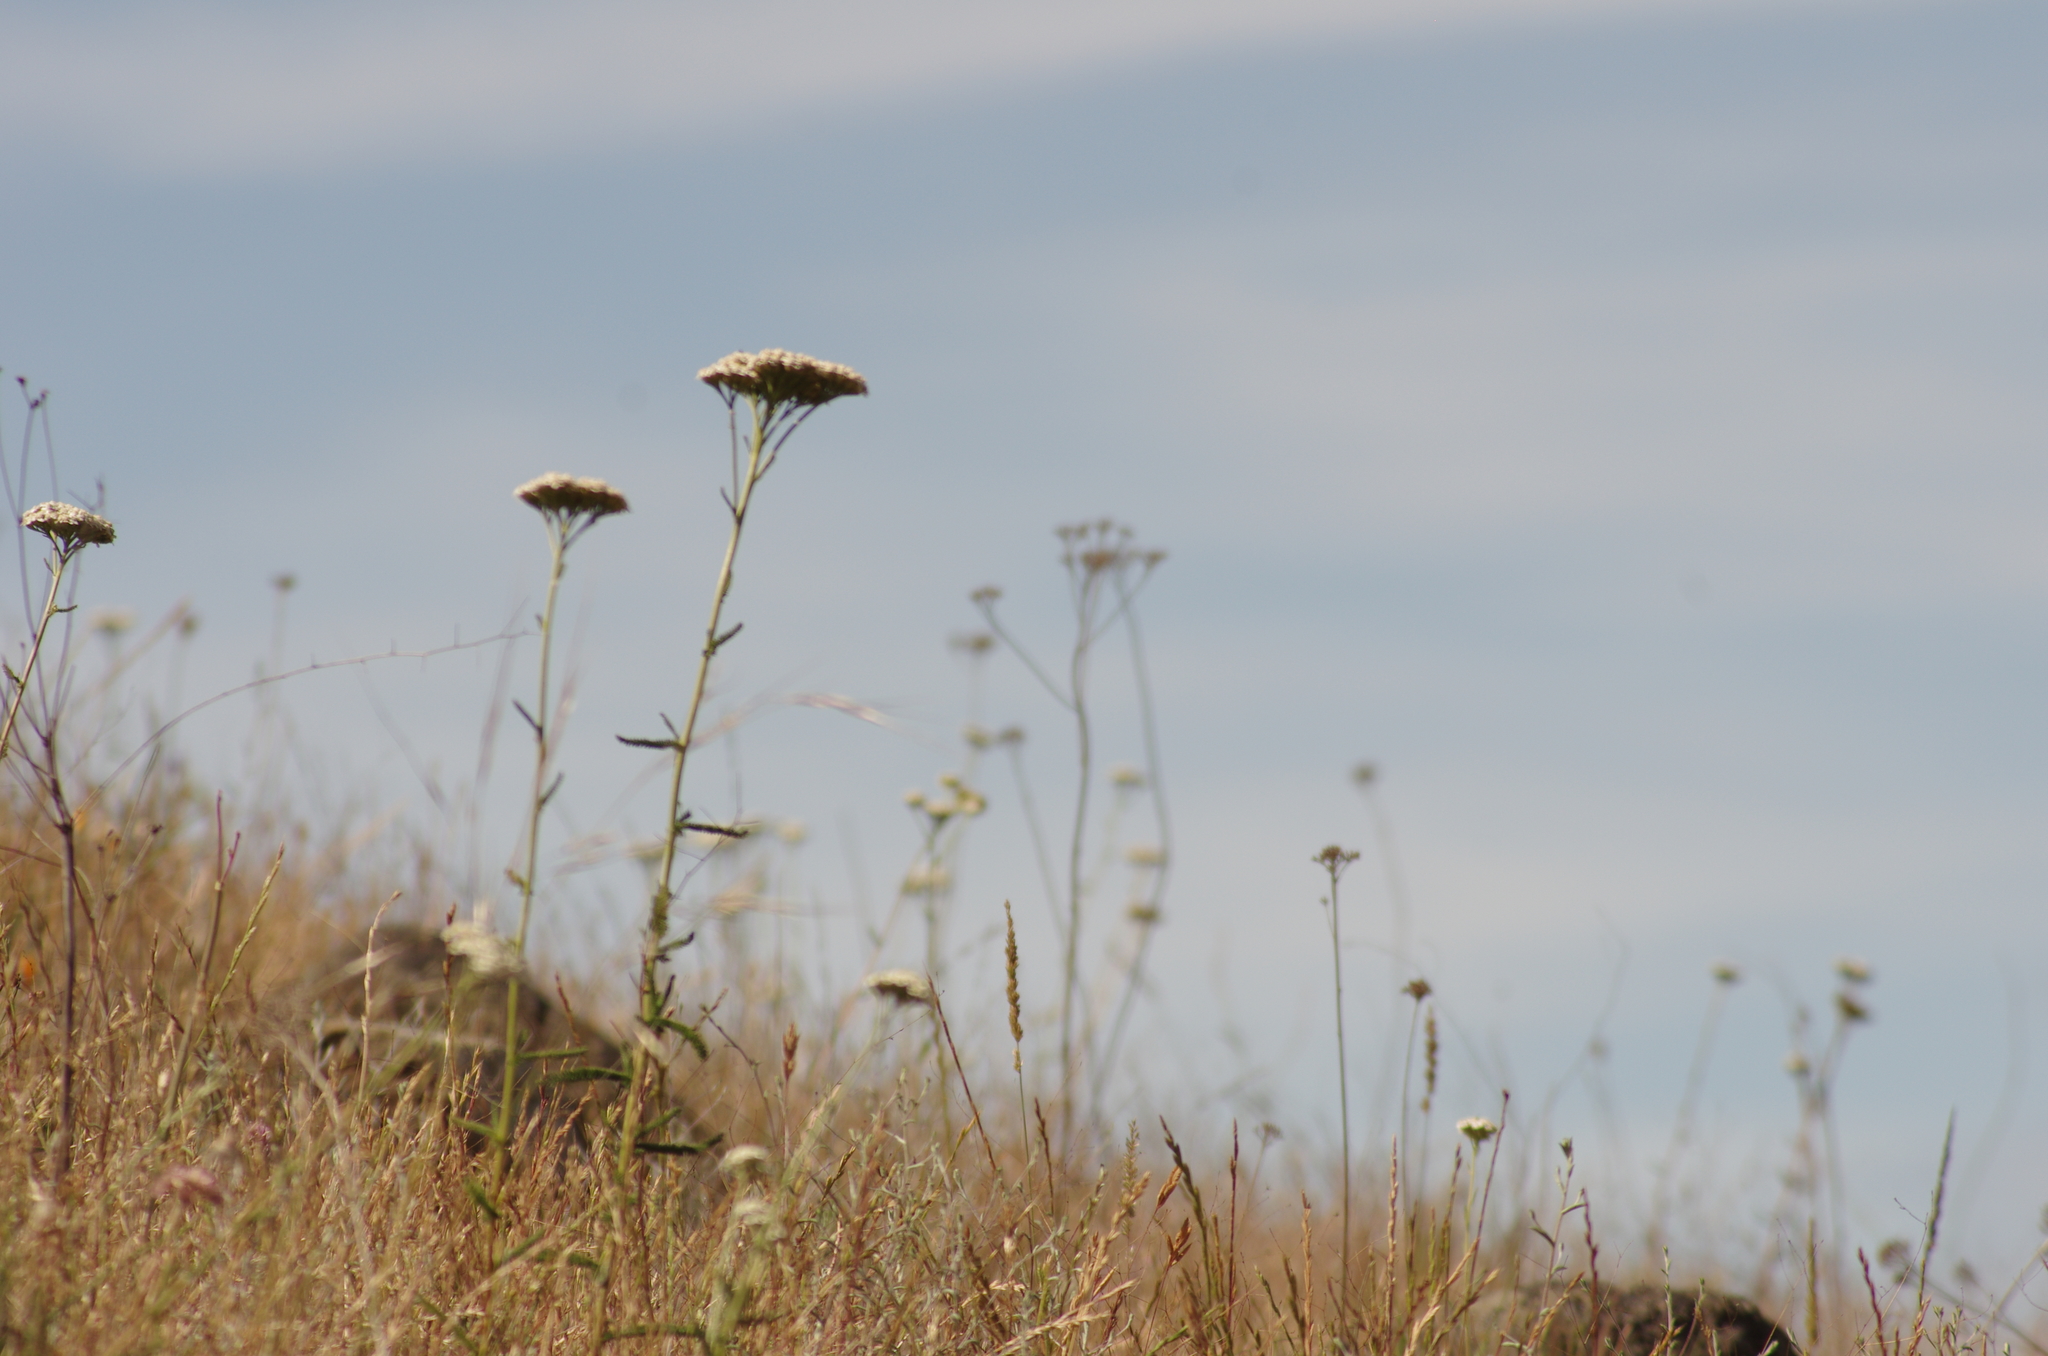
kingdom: Plantae
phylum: Tracheophyta
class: Magnoliopsida
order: Asterales
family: Asteraceae
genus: Achillea
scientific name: Achillea millefolium
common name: Yarrow
